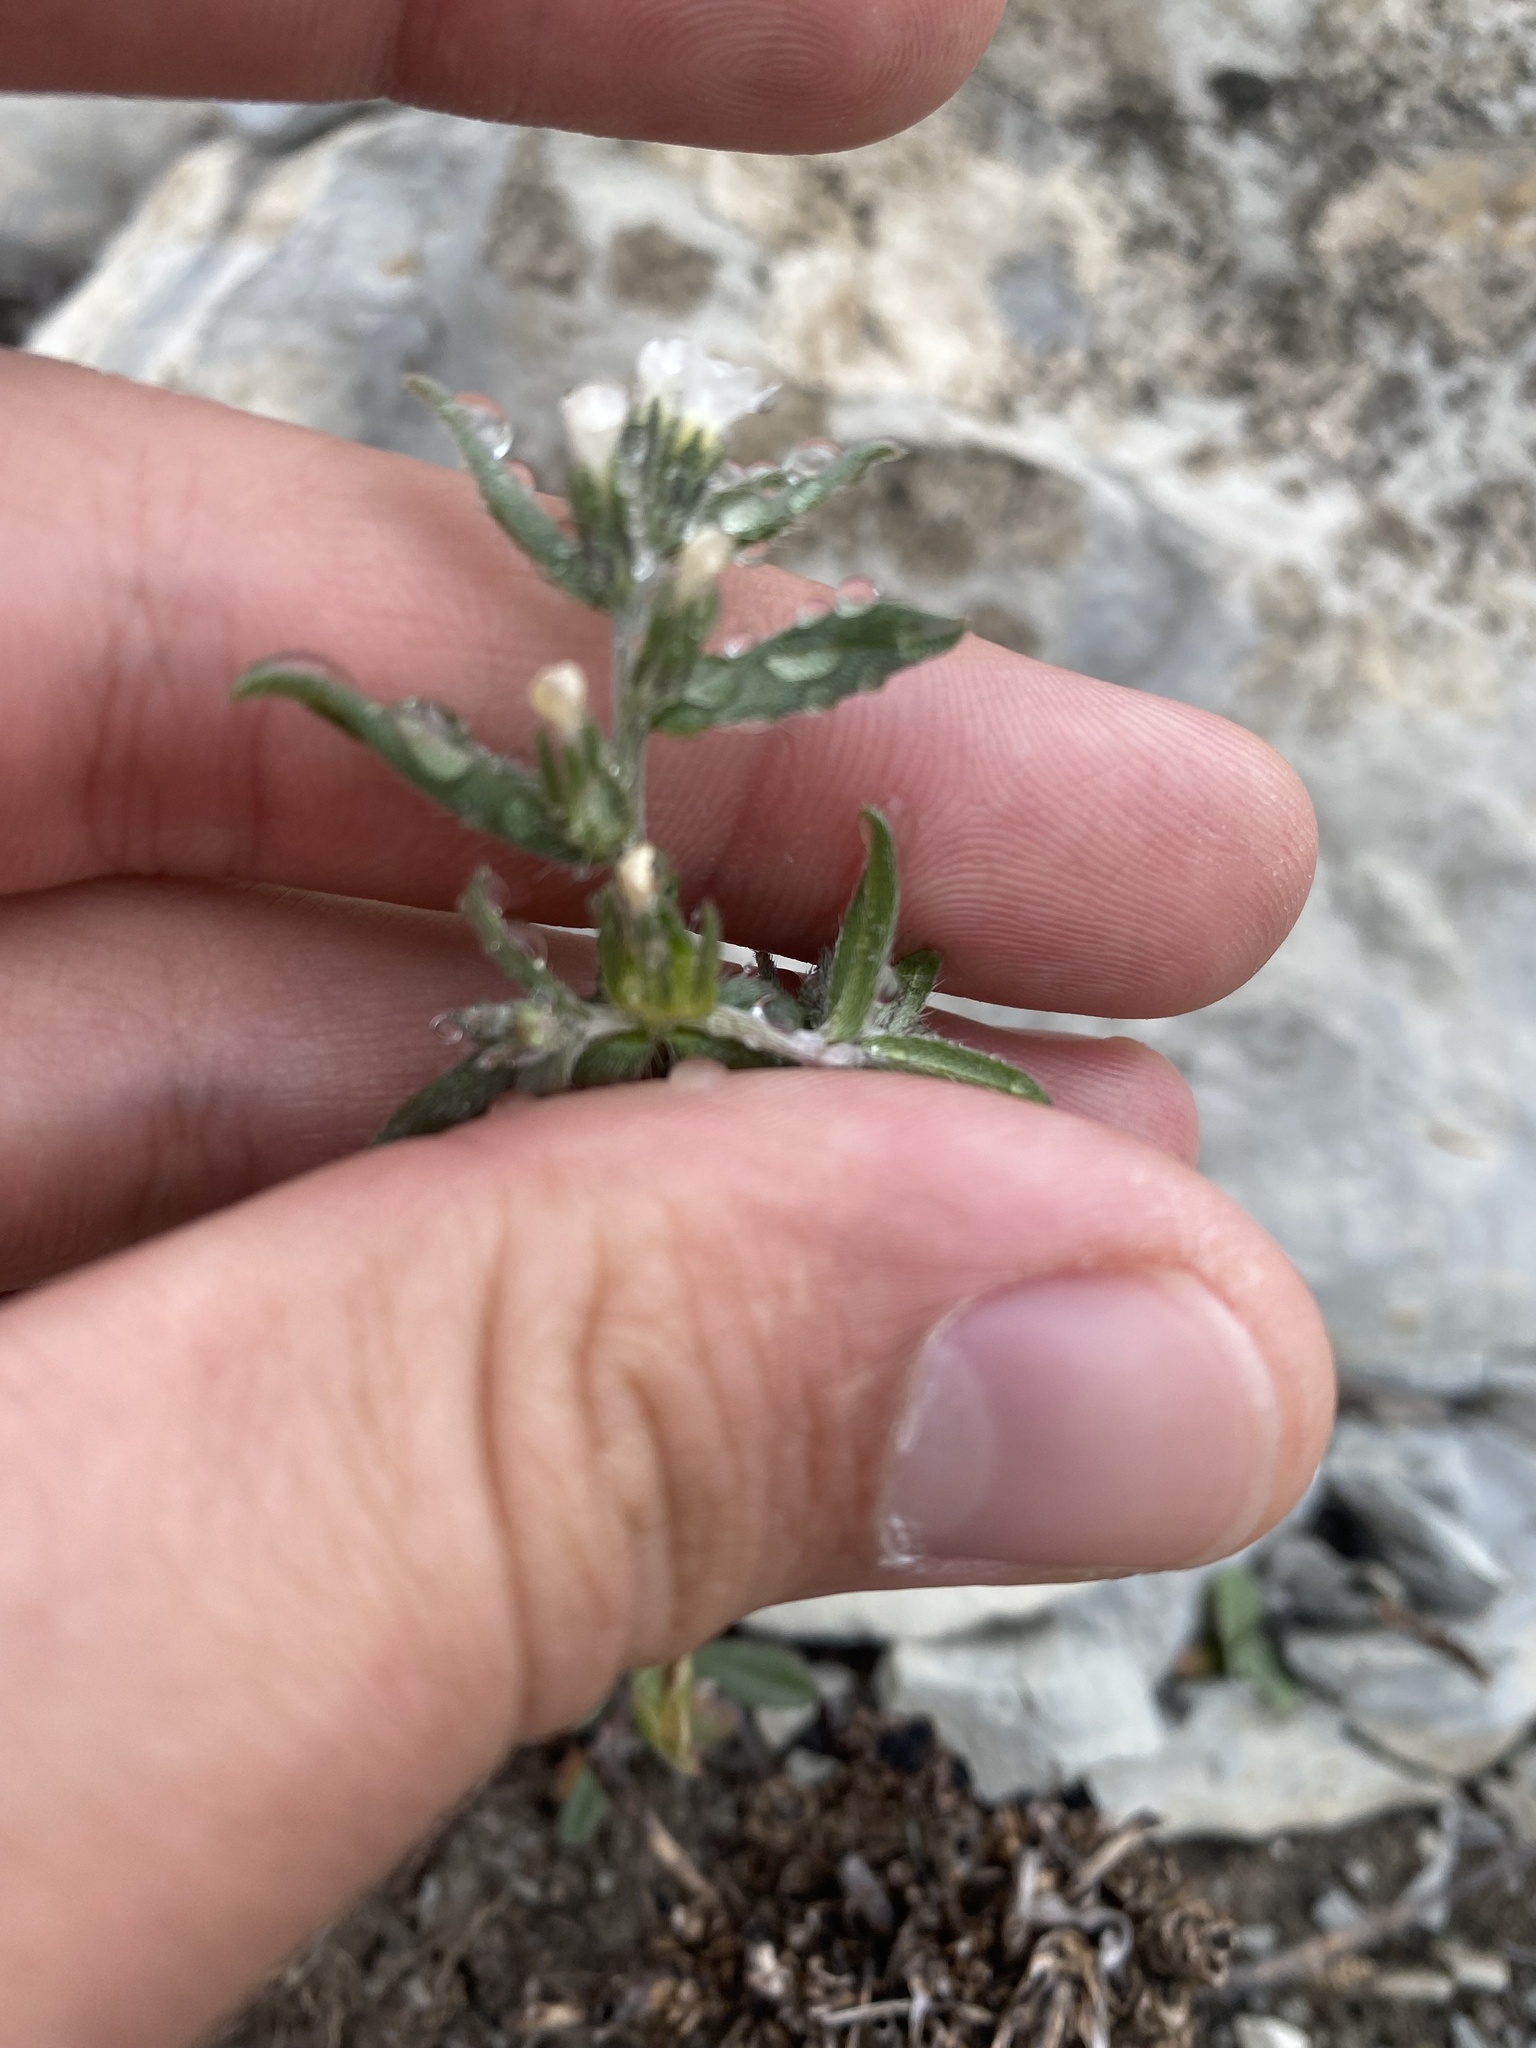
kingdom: Plantae
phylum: Tracheophyta
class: Magnoliopsida
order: Boraginales
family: Boraginaceae
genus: Buglossoides
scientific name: Buglossoides arvensis
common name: Corn gromwell
